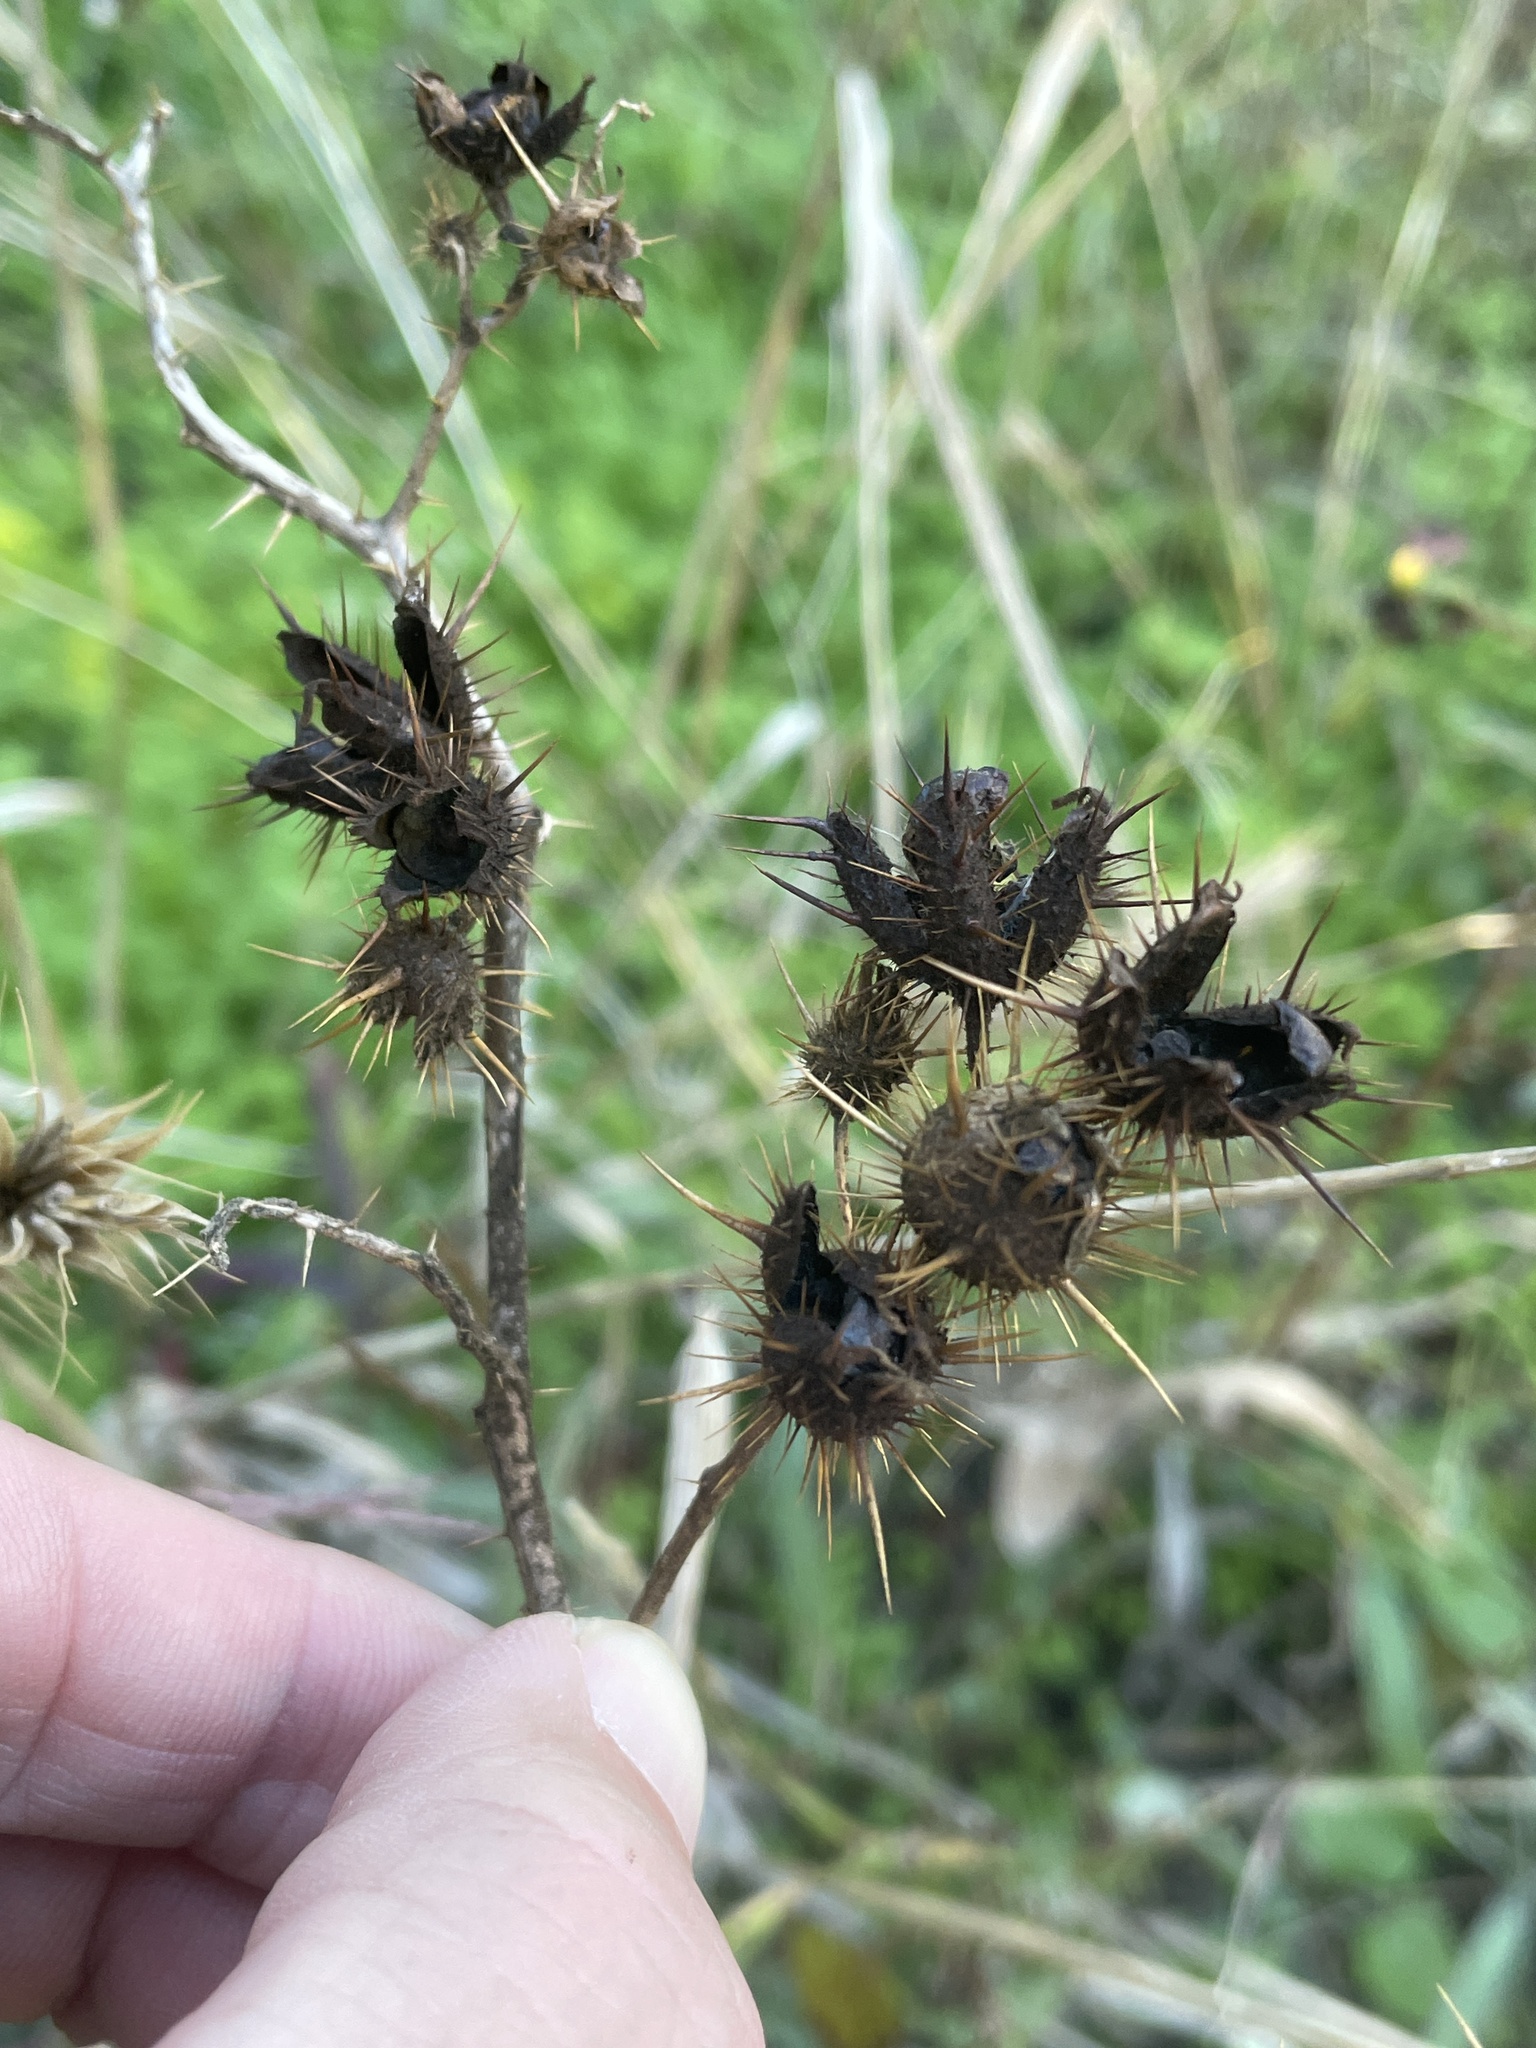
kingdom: Plantae
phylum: Tracheophyta
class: Magnoliopsida
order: Solanales
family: Solanaceae
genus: Solanum
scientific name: Solanum angustifolium
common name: Buffalobur nightshade
